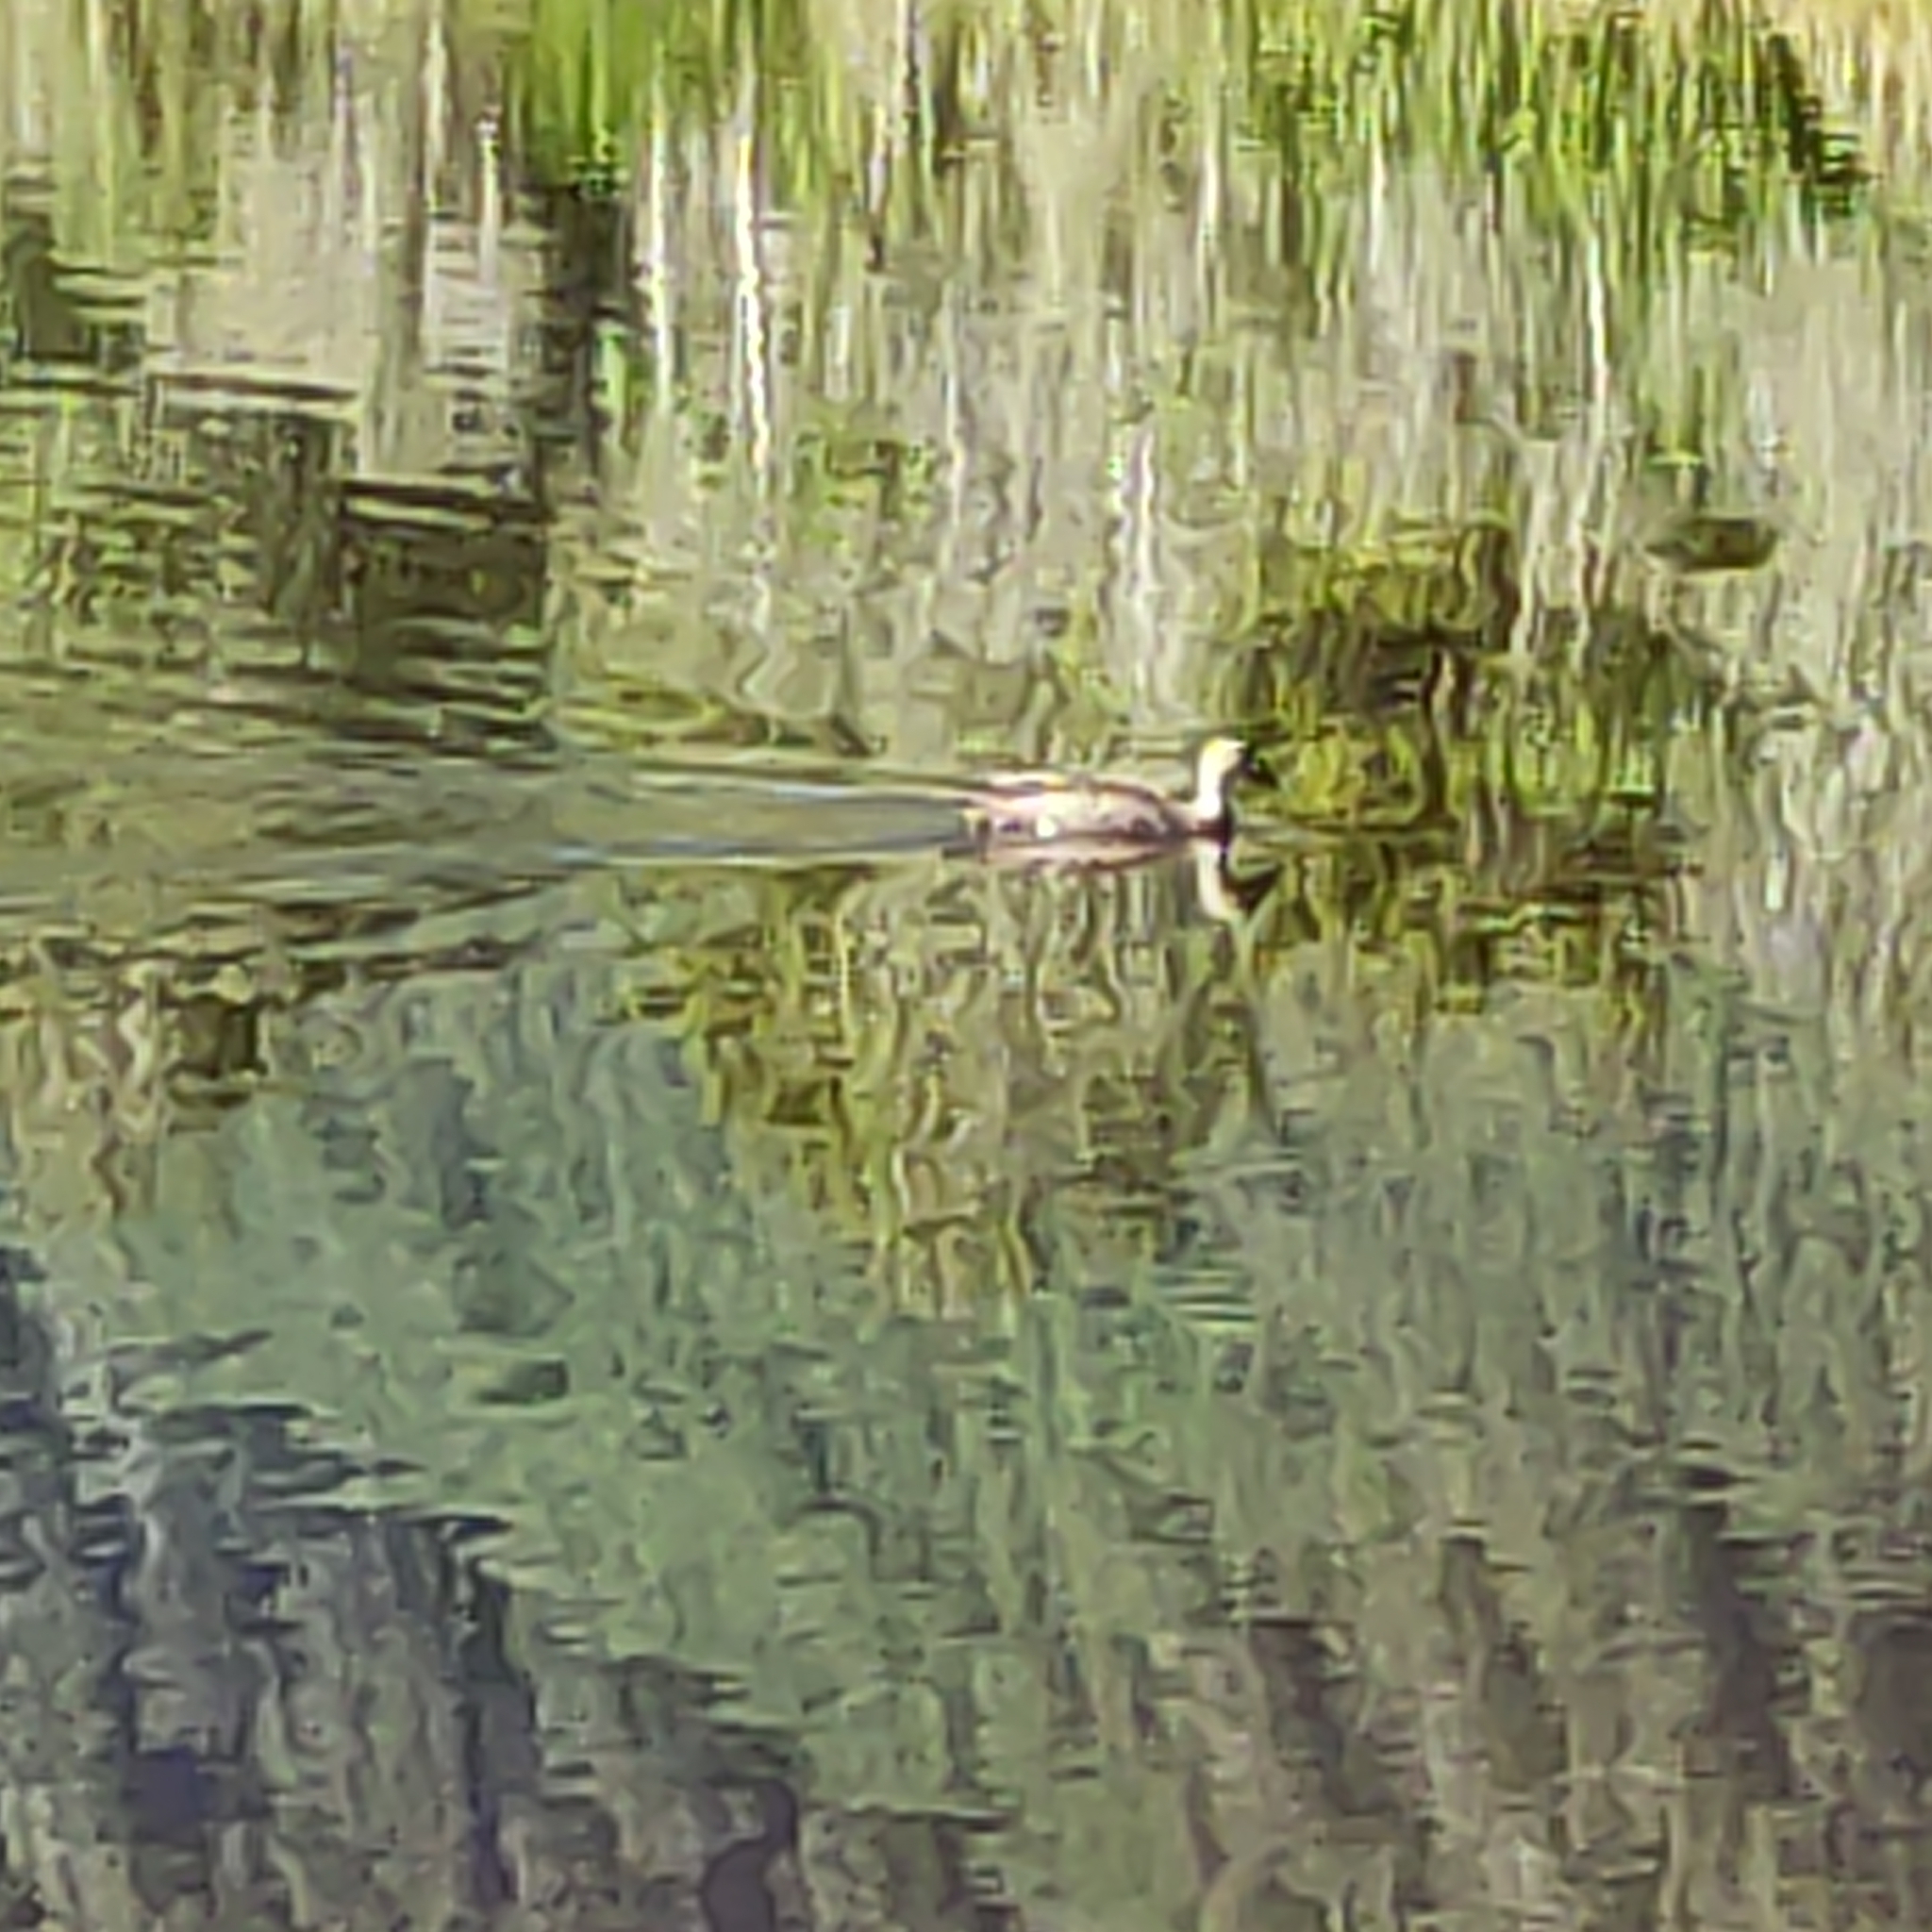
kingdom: Animalia
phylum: Chordata
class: Aves
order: Anseriformes
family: Anatidae
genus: Anas
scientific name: Anas
